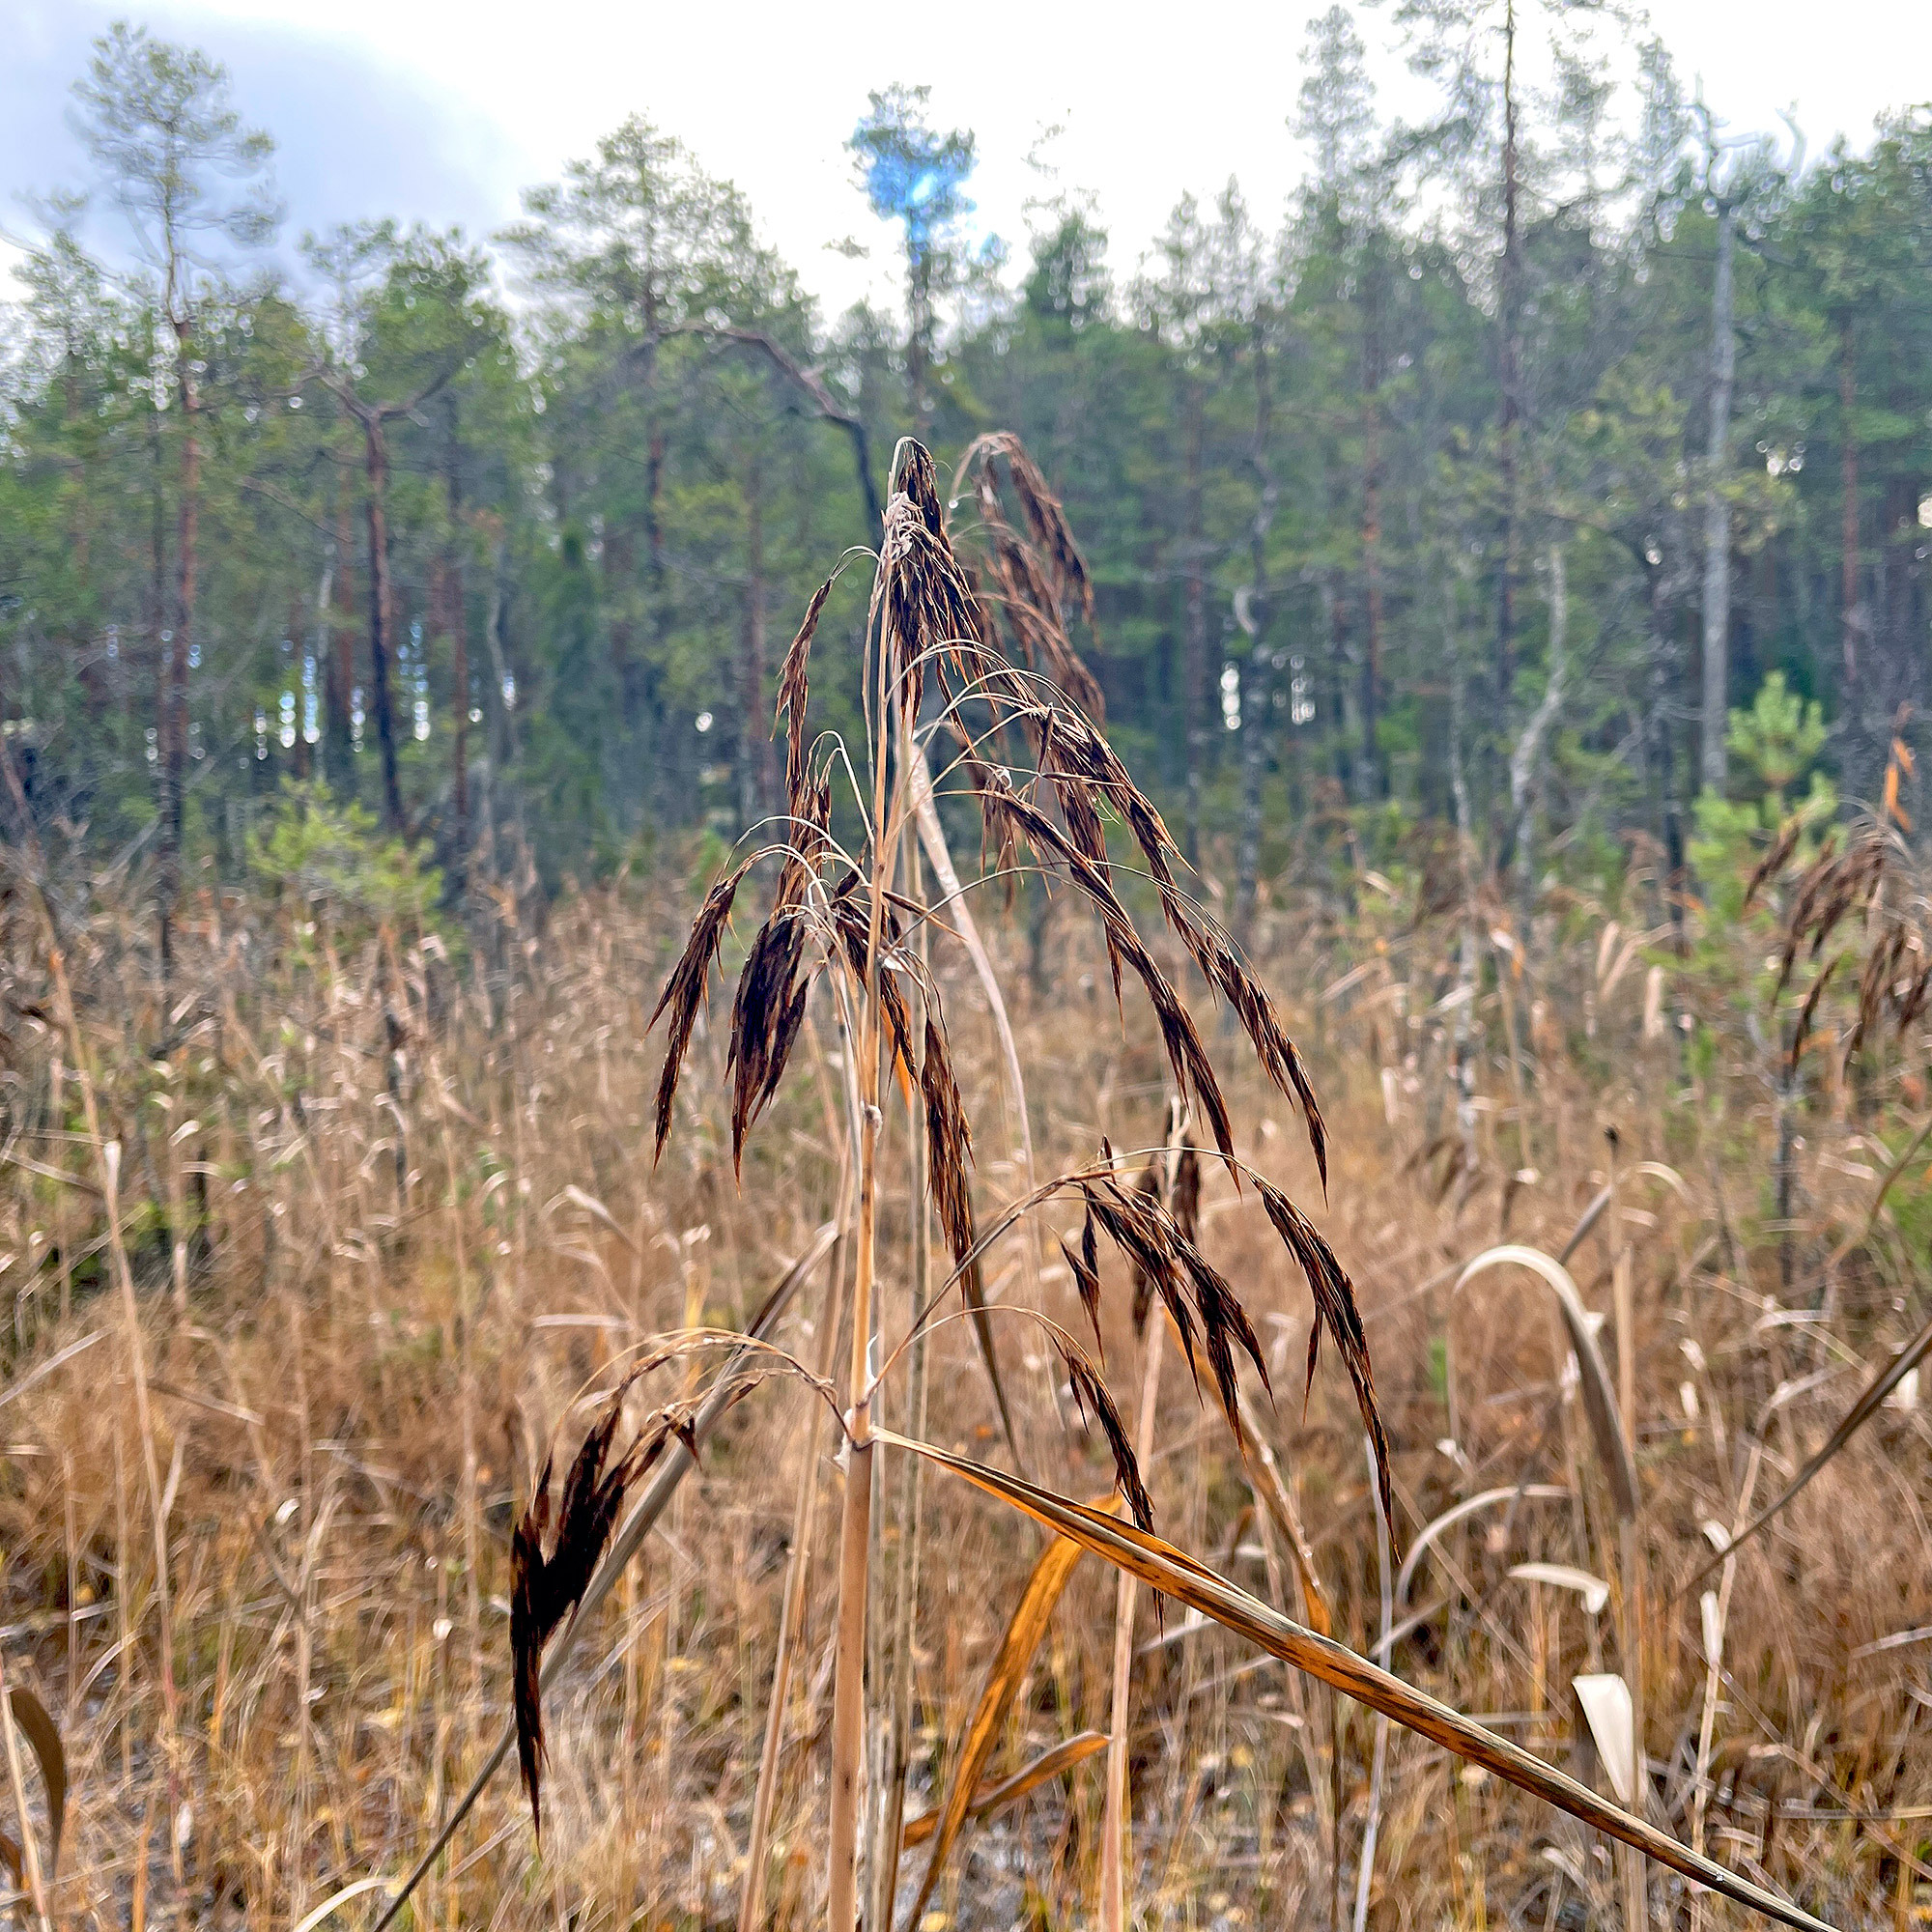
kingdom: Plantae
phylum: Tracheophyta
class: Liliopsida
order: Poales
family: Poaceae
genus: Phragmites
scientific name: Phragmites australis
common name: Common reed
